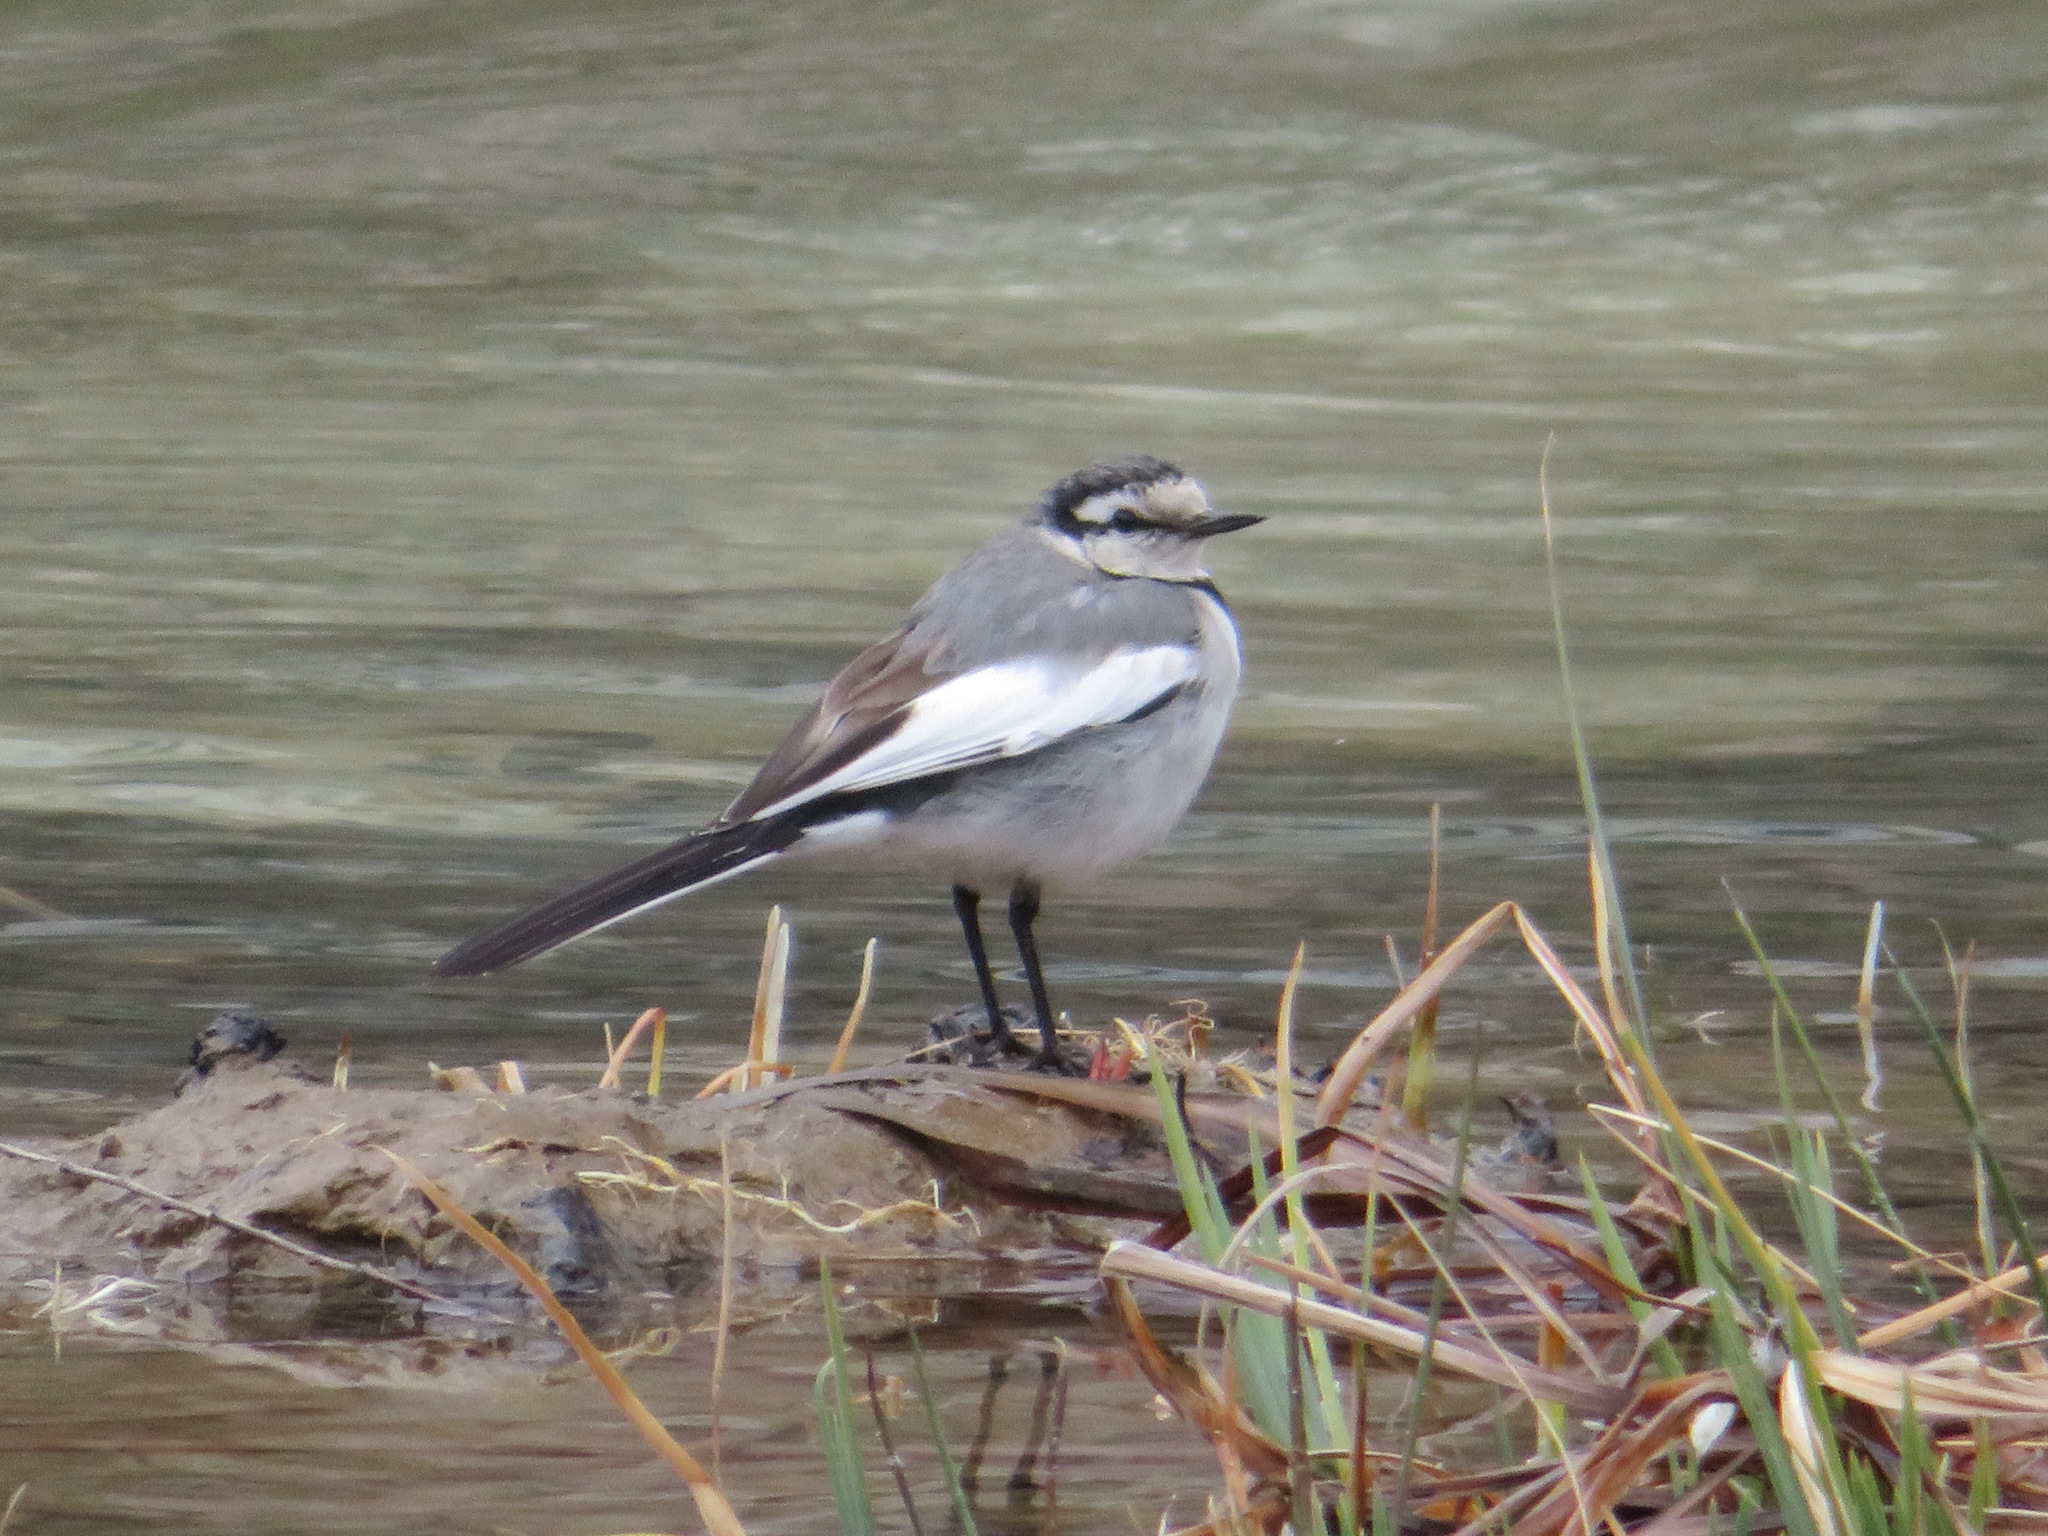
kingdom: Animalia
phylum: Chordata
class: Aves
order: Passeriformes
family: Motacillidae
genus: Motacilla
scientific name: Motacilla alba
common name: White wagtail
